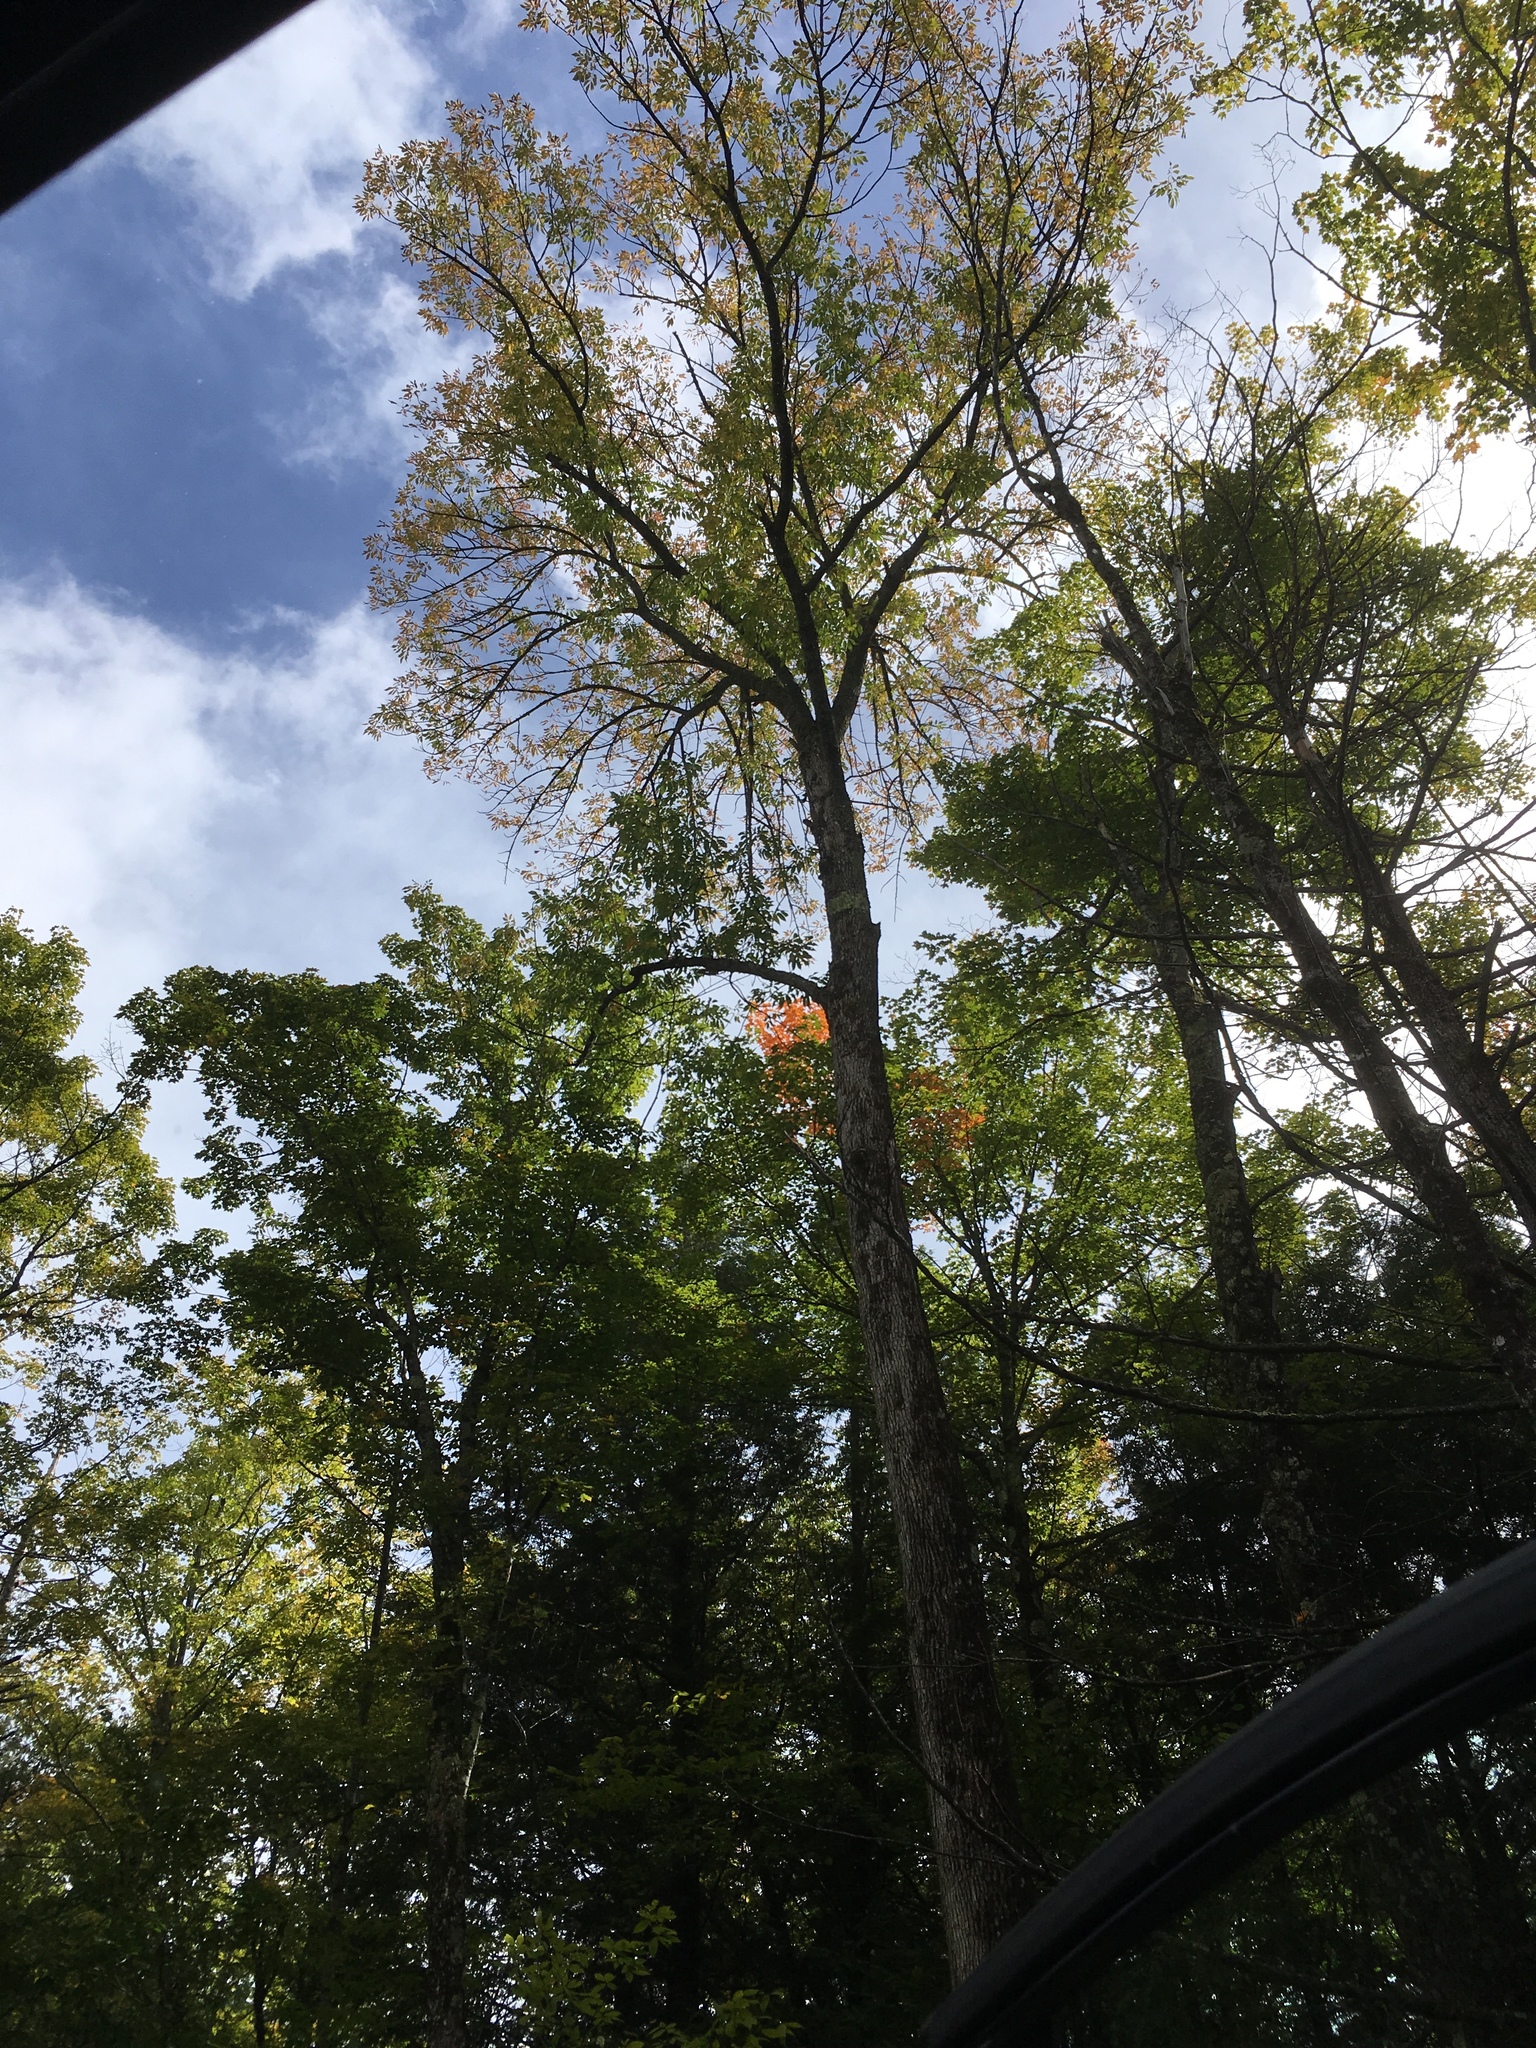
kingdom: Plantae
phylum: Tracheophyta
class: Magnoliopsida
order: Lamiales
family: Oleaceae
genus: Fraxinus
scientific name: Fraxinus americana
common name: White ash
